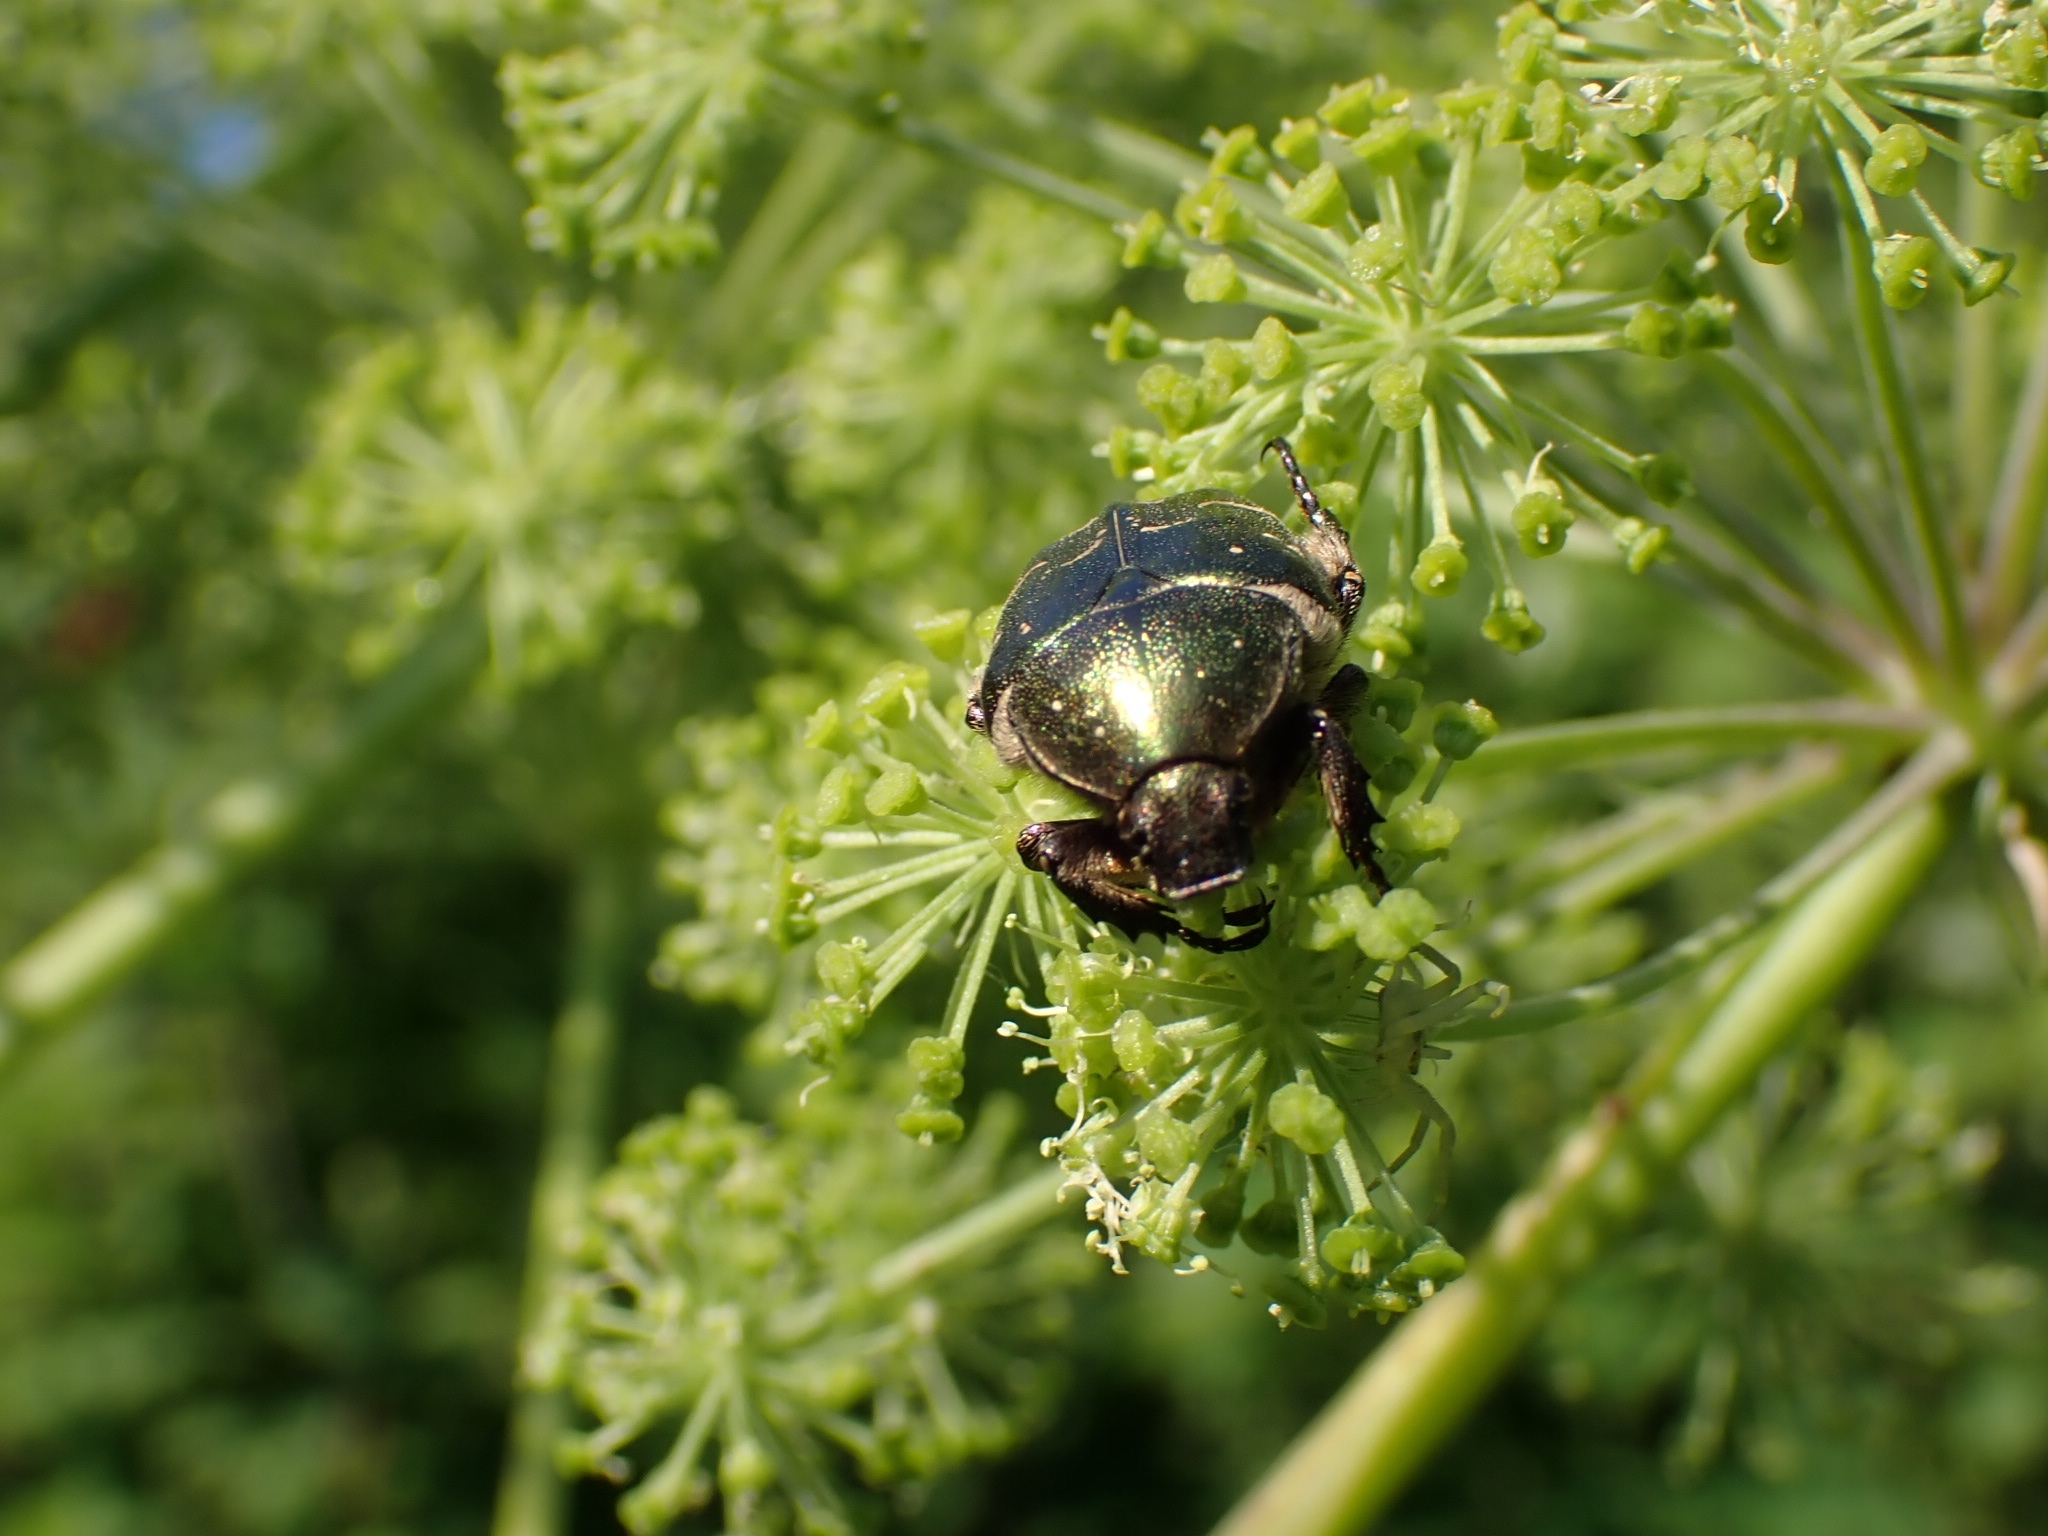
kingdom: Animalia
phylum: Arthropoda
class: Insecta
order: Coleoptera
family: Scarabaeidae
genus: Cetonia
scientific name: Cetonia aurata
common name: Rose chafer
